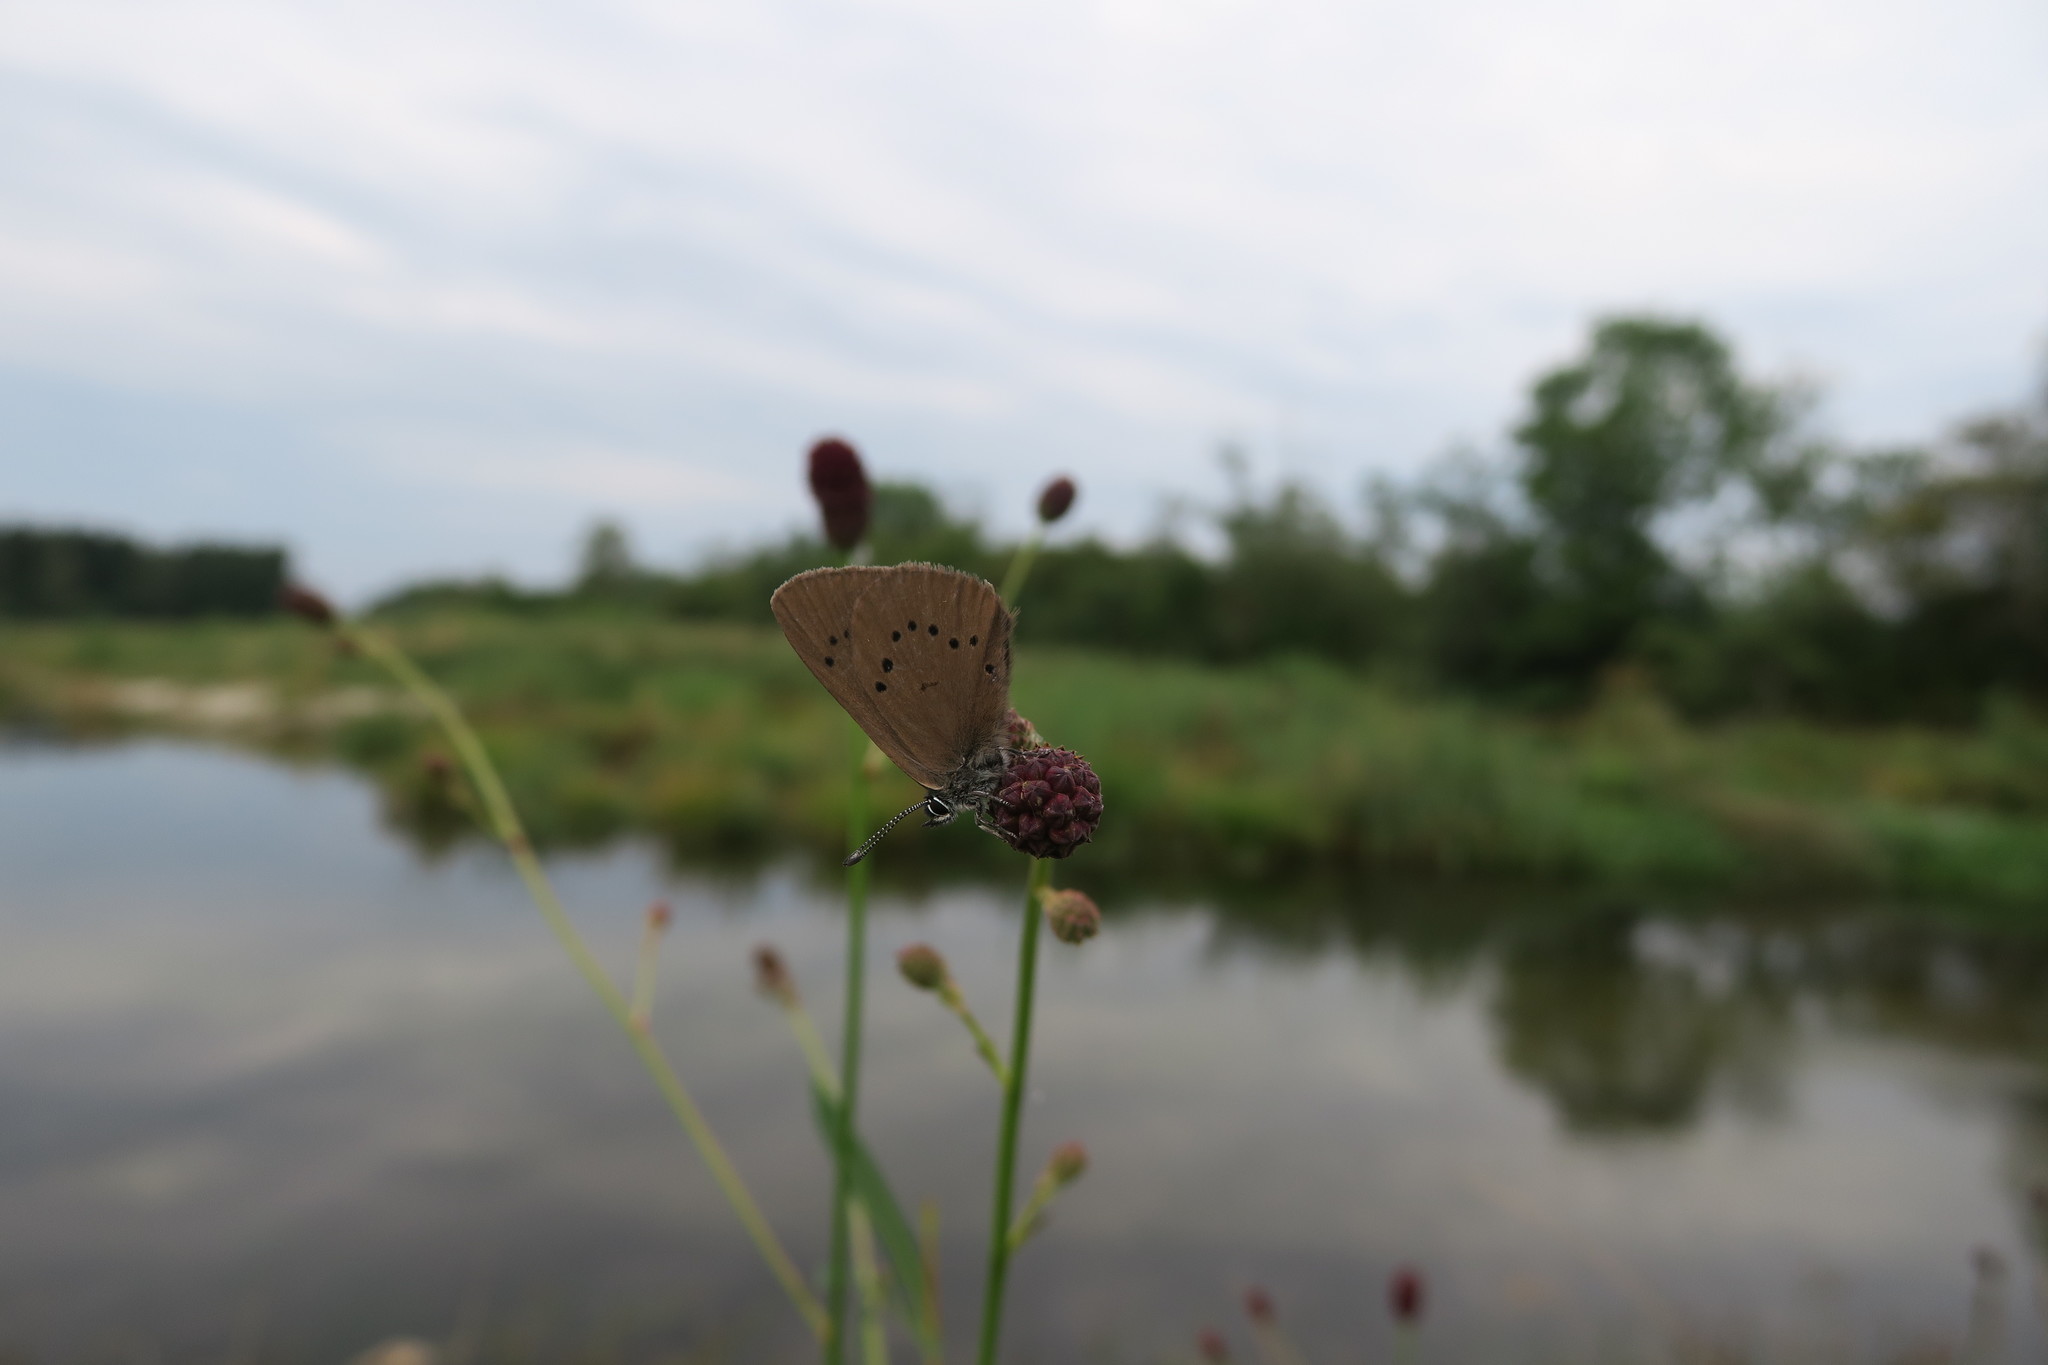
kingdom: Animalia
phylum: Arthropoda
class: Insecta
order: Lepidoptera
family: Lycaenidae
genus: Maculinea
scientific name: Maculinea nausithous
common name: Dusky large blue
